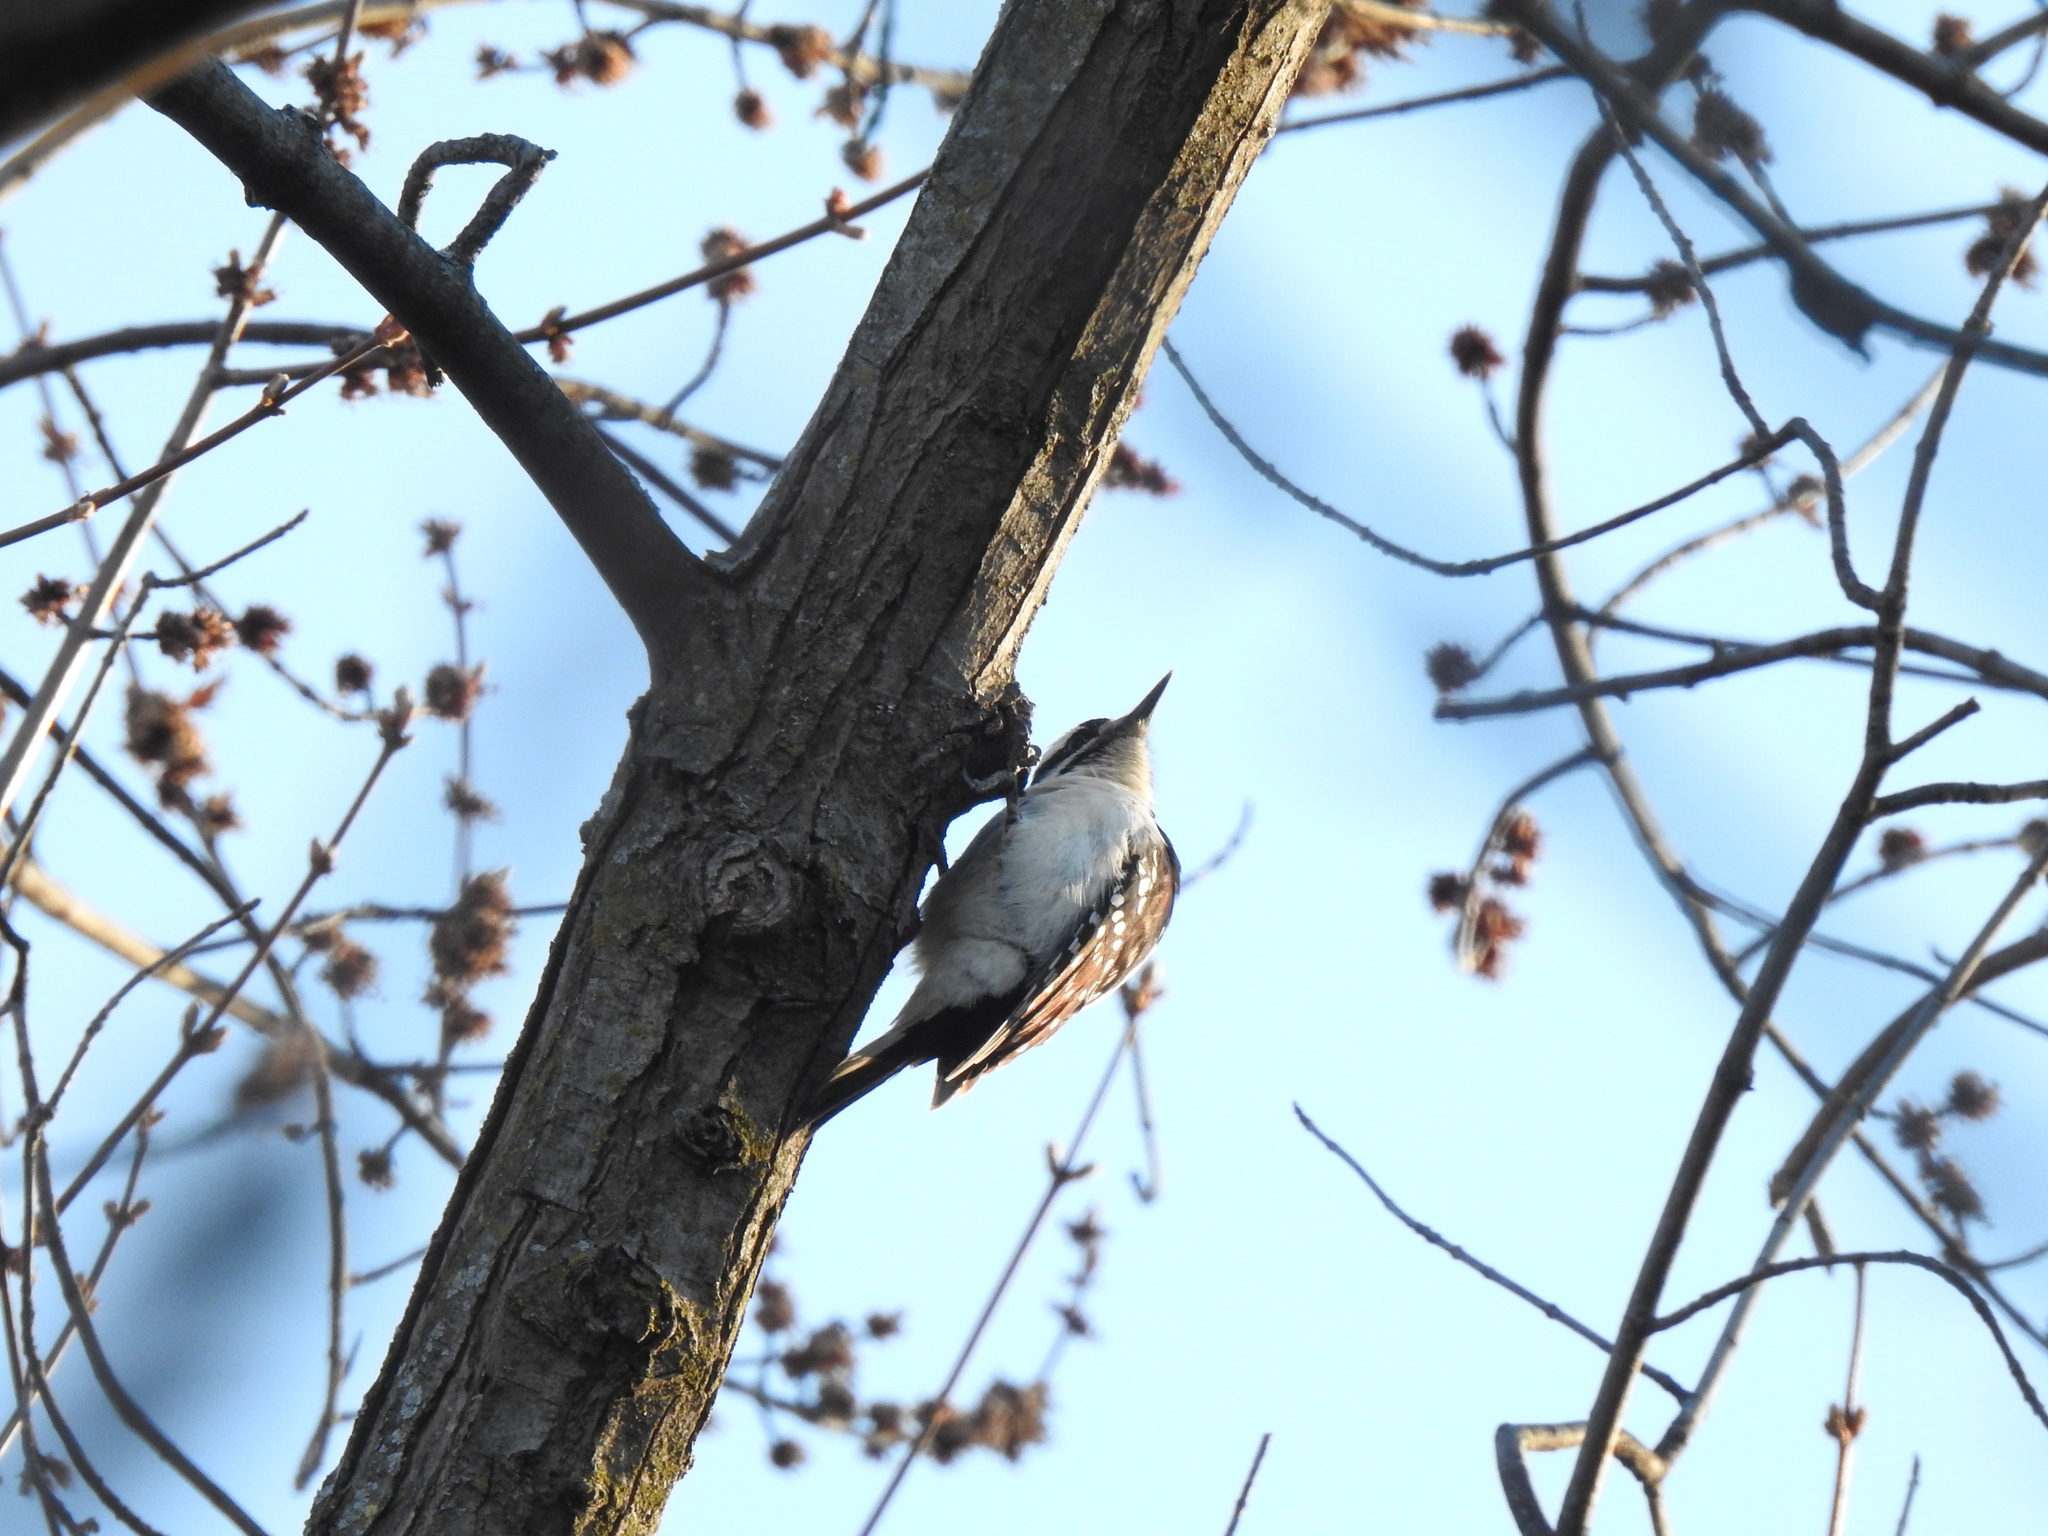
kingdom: Animalia
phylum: Chordata
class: Aves
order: Piciformes
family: Picidae
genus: Leuconotopicus
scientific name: Leuconotopicus villosus
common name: Hairy woodpecker
